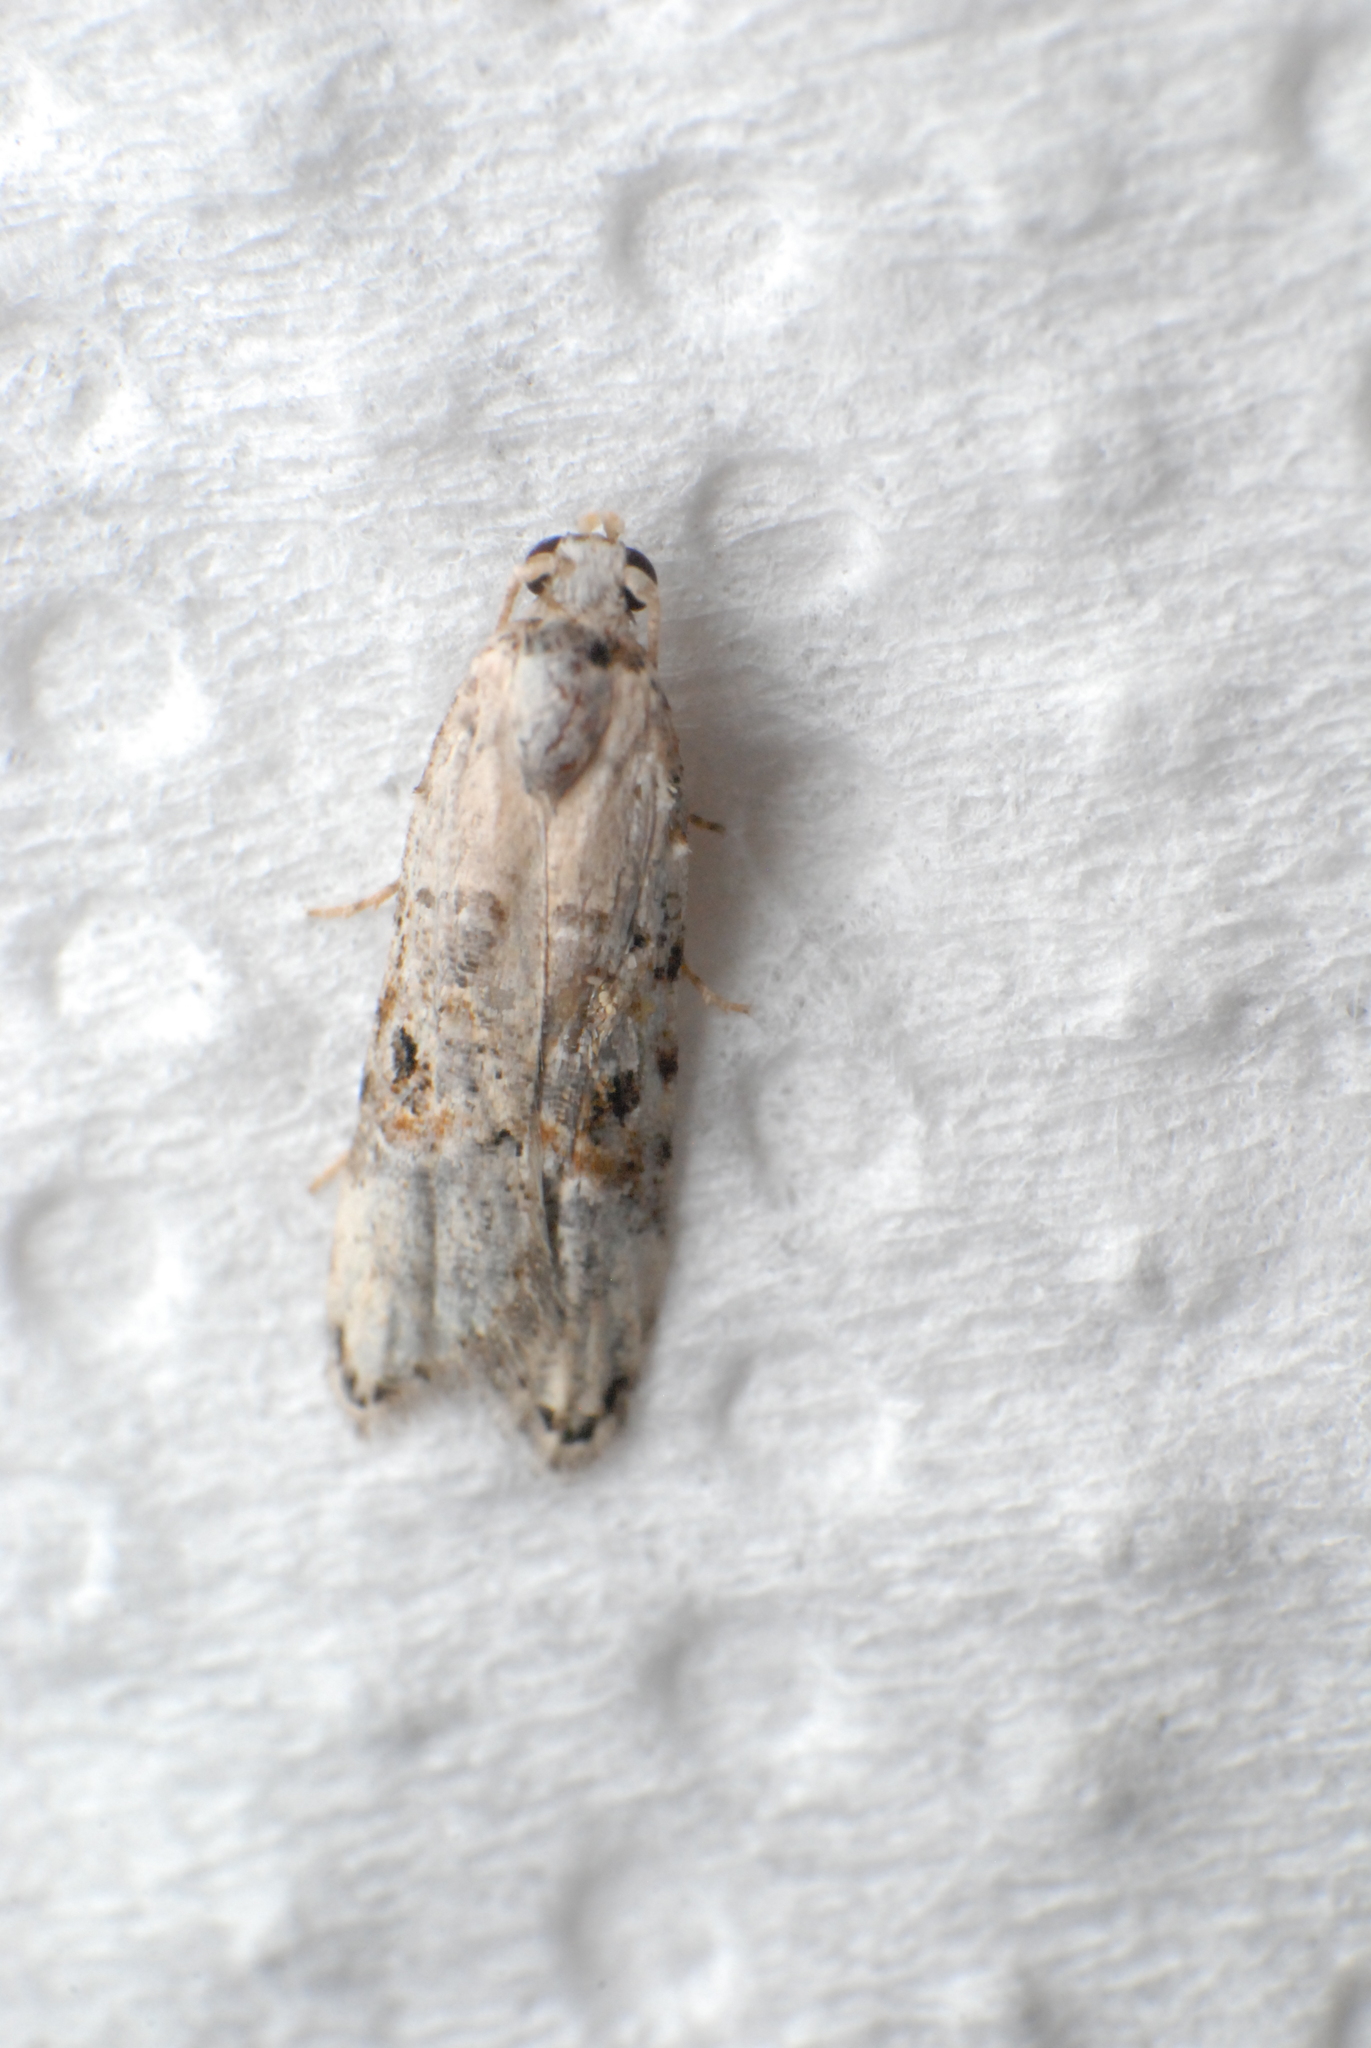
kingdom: Animalia
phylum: Arthropoda
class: Insecta
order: Lepidoptera
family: Carposinidae
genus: Sosineura
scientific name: Sosineura mimica
